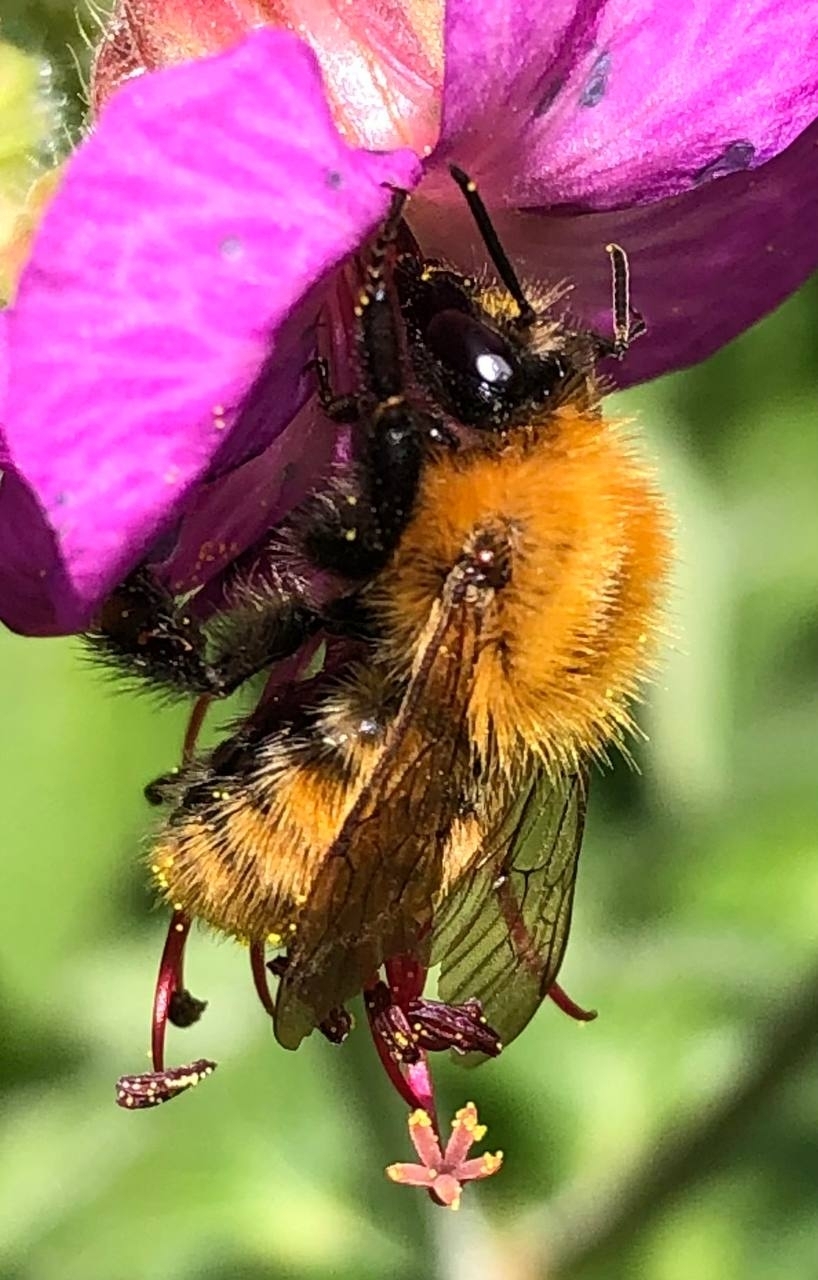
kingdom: Animalia
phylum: Arthropoda
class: Insecta
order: Hymenoptera
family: Apidae
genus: Bombus
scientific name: Bombus pascuorum
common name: Common carder bee
